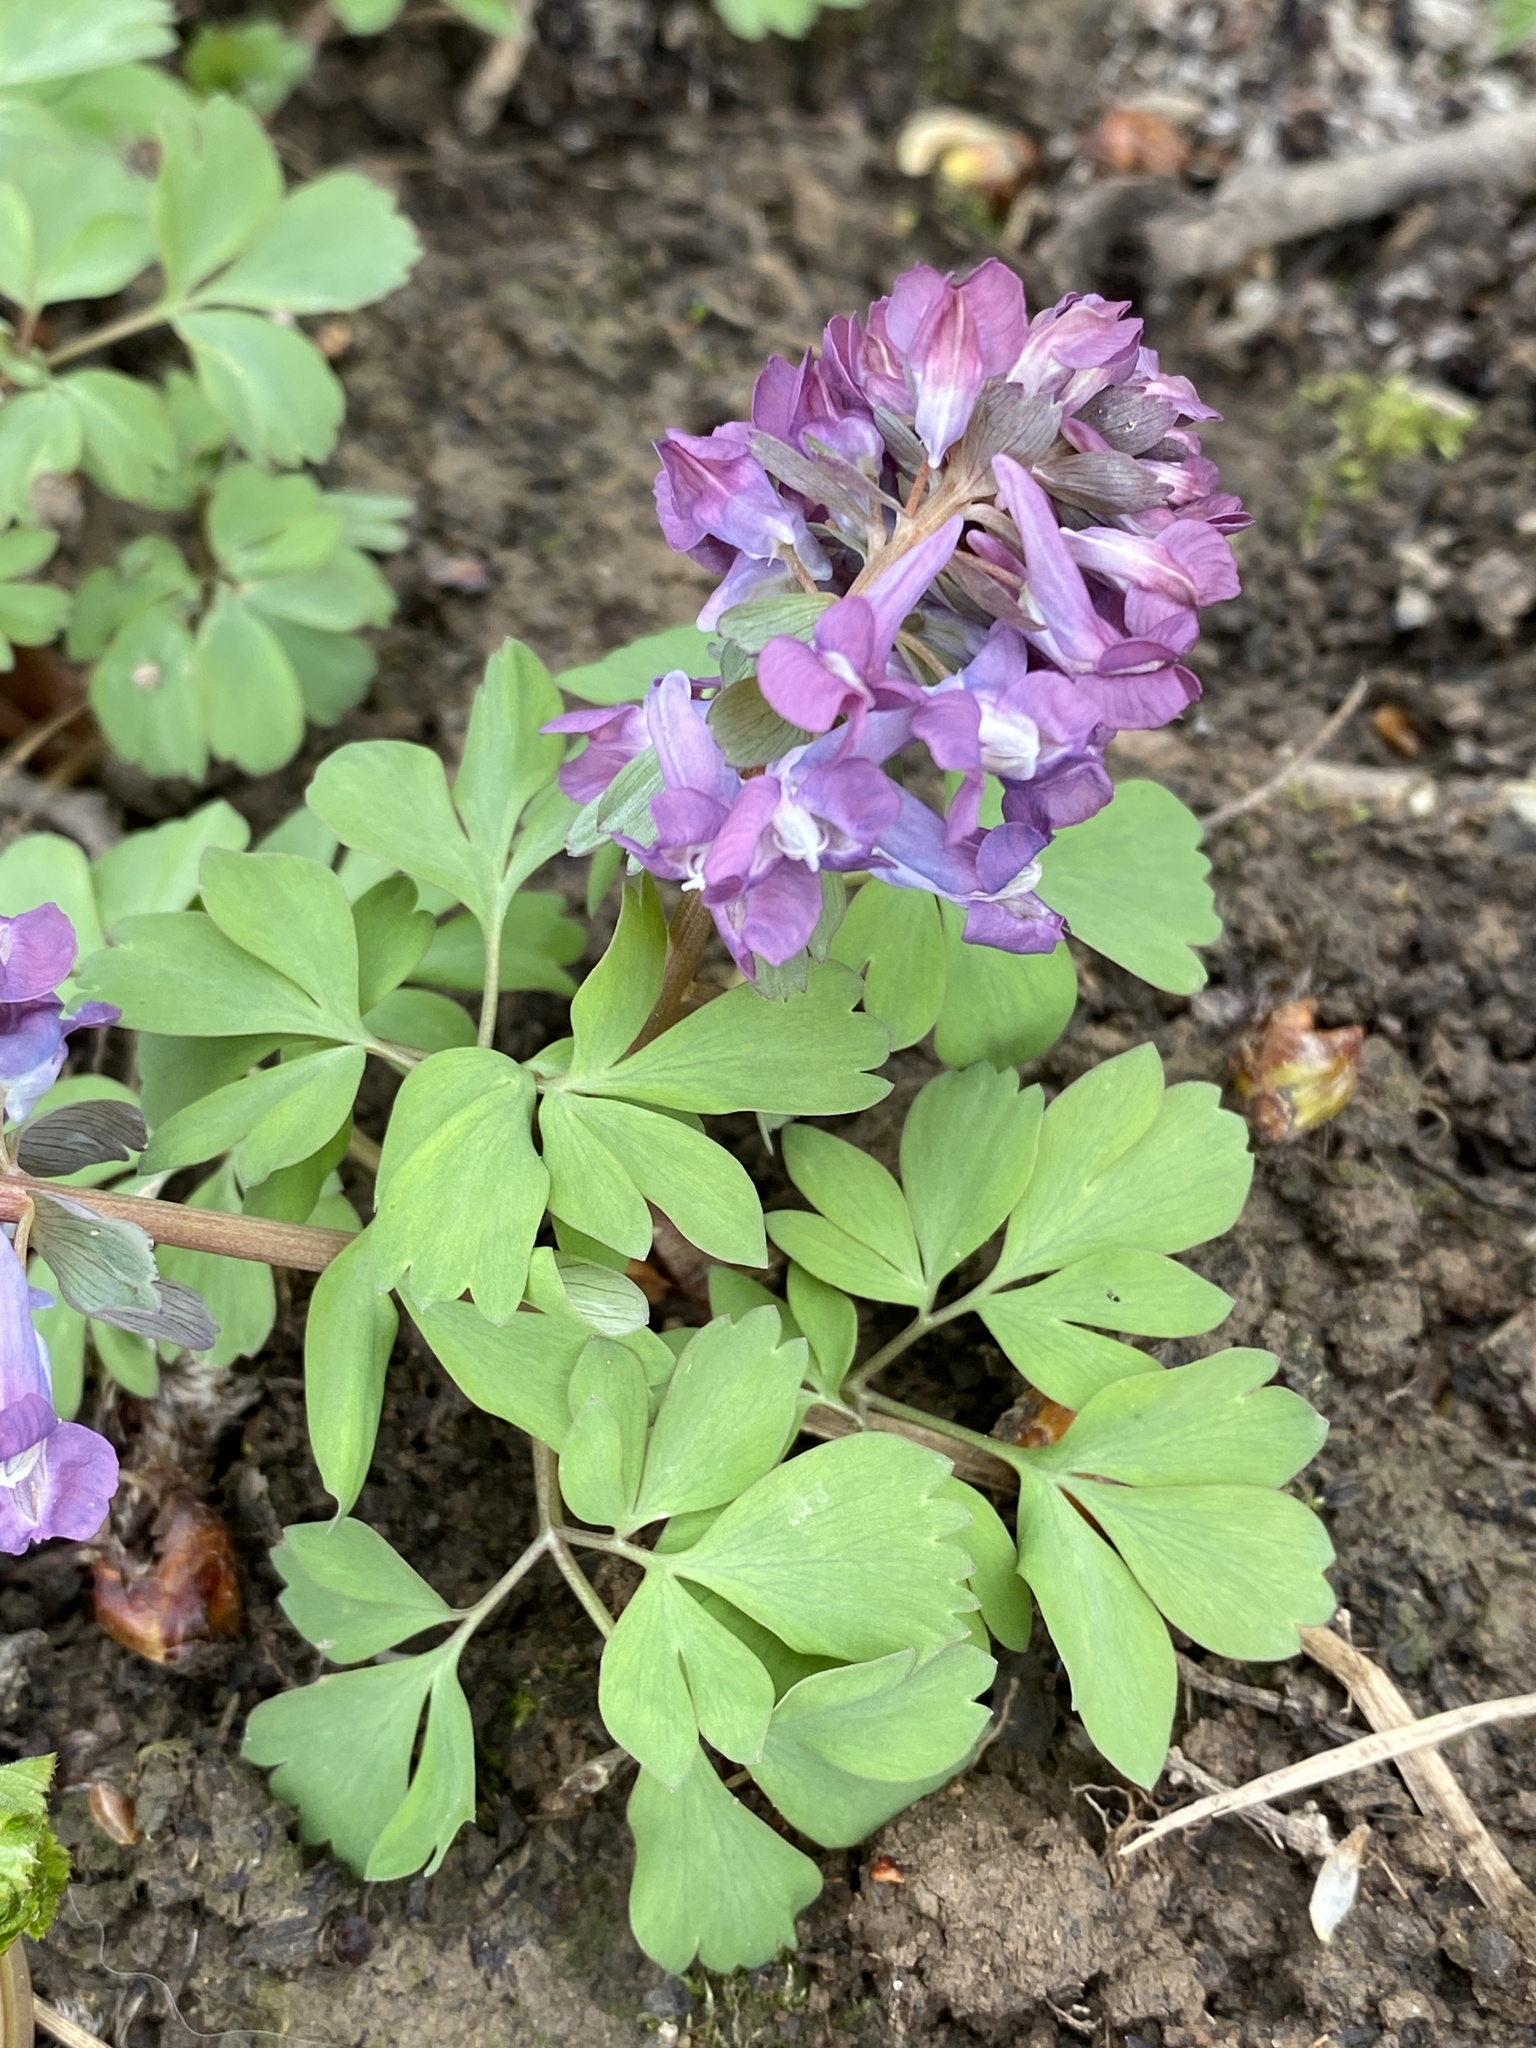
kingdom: Plantae
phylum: Tracheophyta
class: Magnoliopsida
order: Ranunculales
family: Papaveraceae
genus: Corydalis
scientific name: Corydalis solida
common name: Bird-in-a-bush
